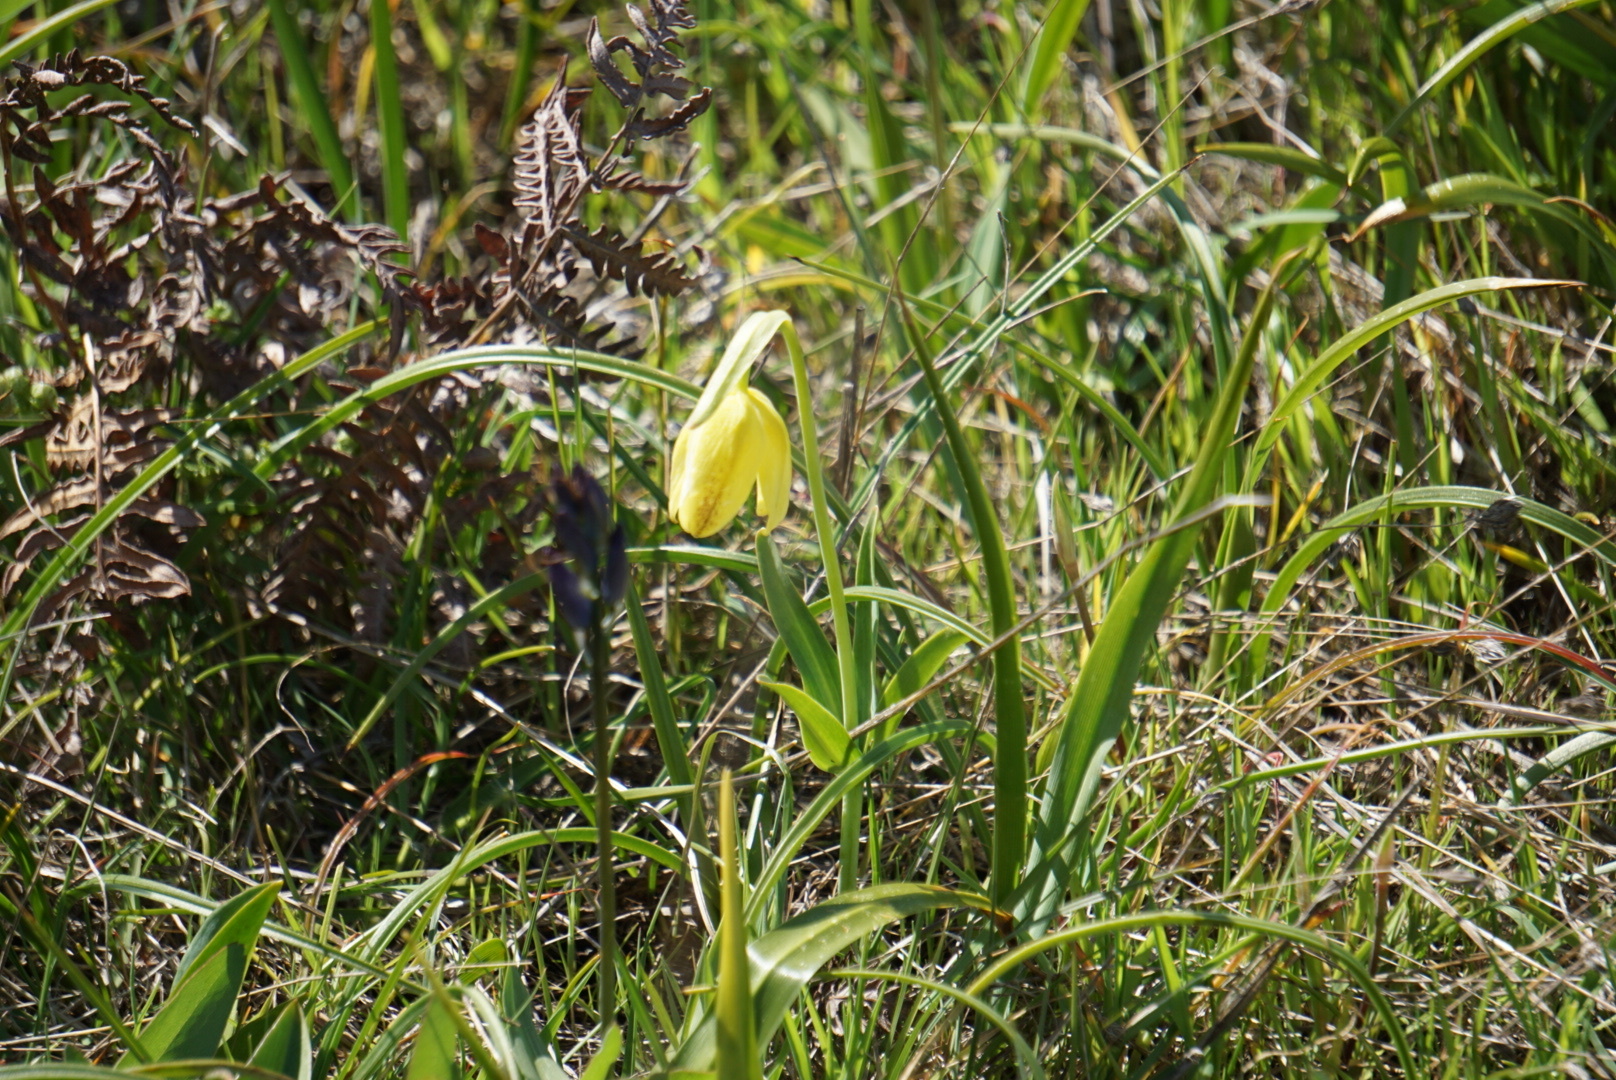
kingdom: Plantae
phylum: Tracheophyta
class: Liliopsida
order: Liliales
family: Liliaceae
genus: Fritillaria
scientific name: Fritillaria affinis
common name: Ojai fritillary
